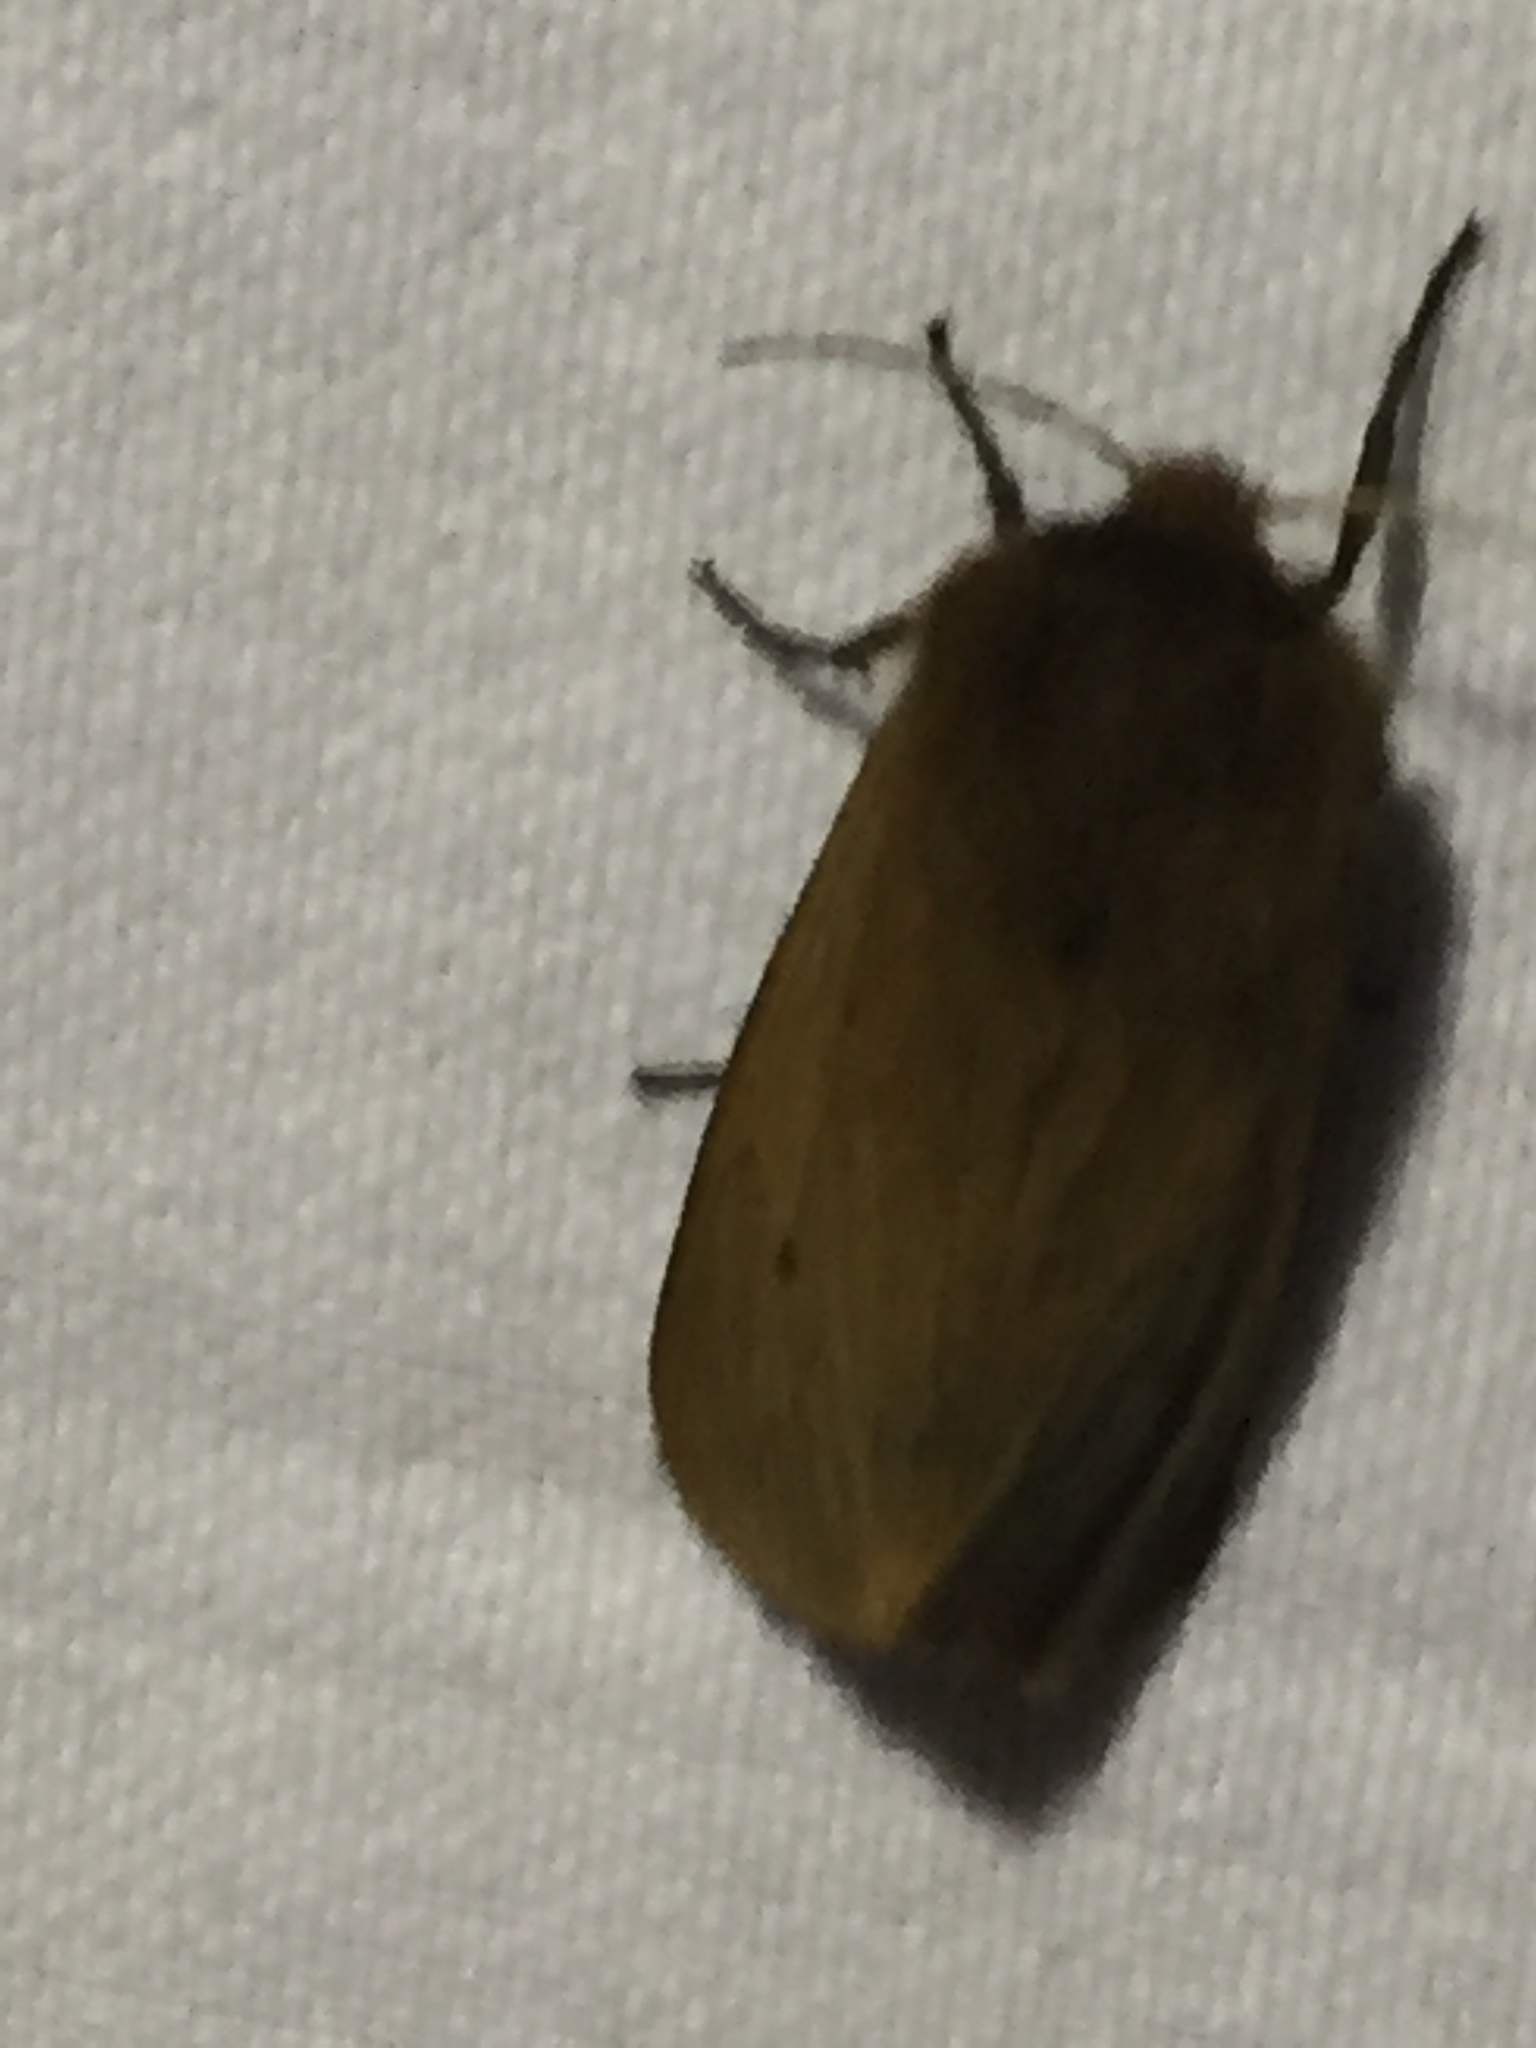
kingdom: Animalia
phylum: Arthropoda
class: Insecta
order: Lepidoptera
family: Erebidae
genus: Phragmatobia
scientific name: Phragmatobia fuliginosa
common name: Ruby tiger
